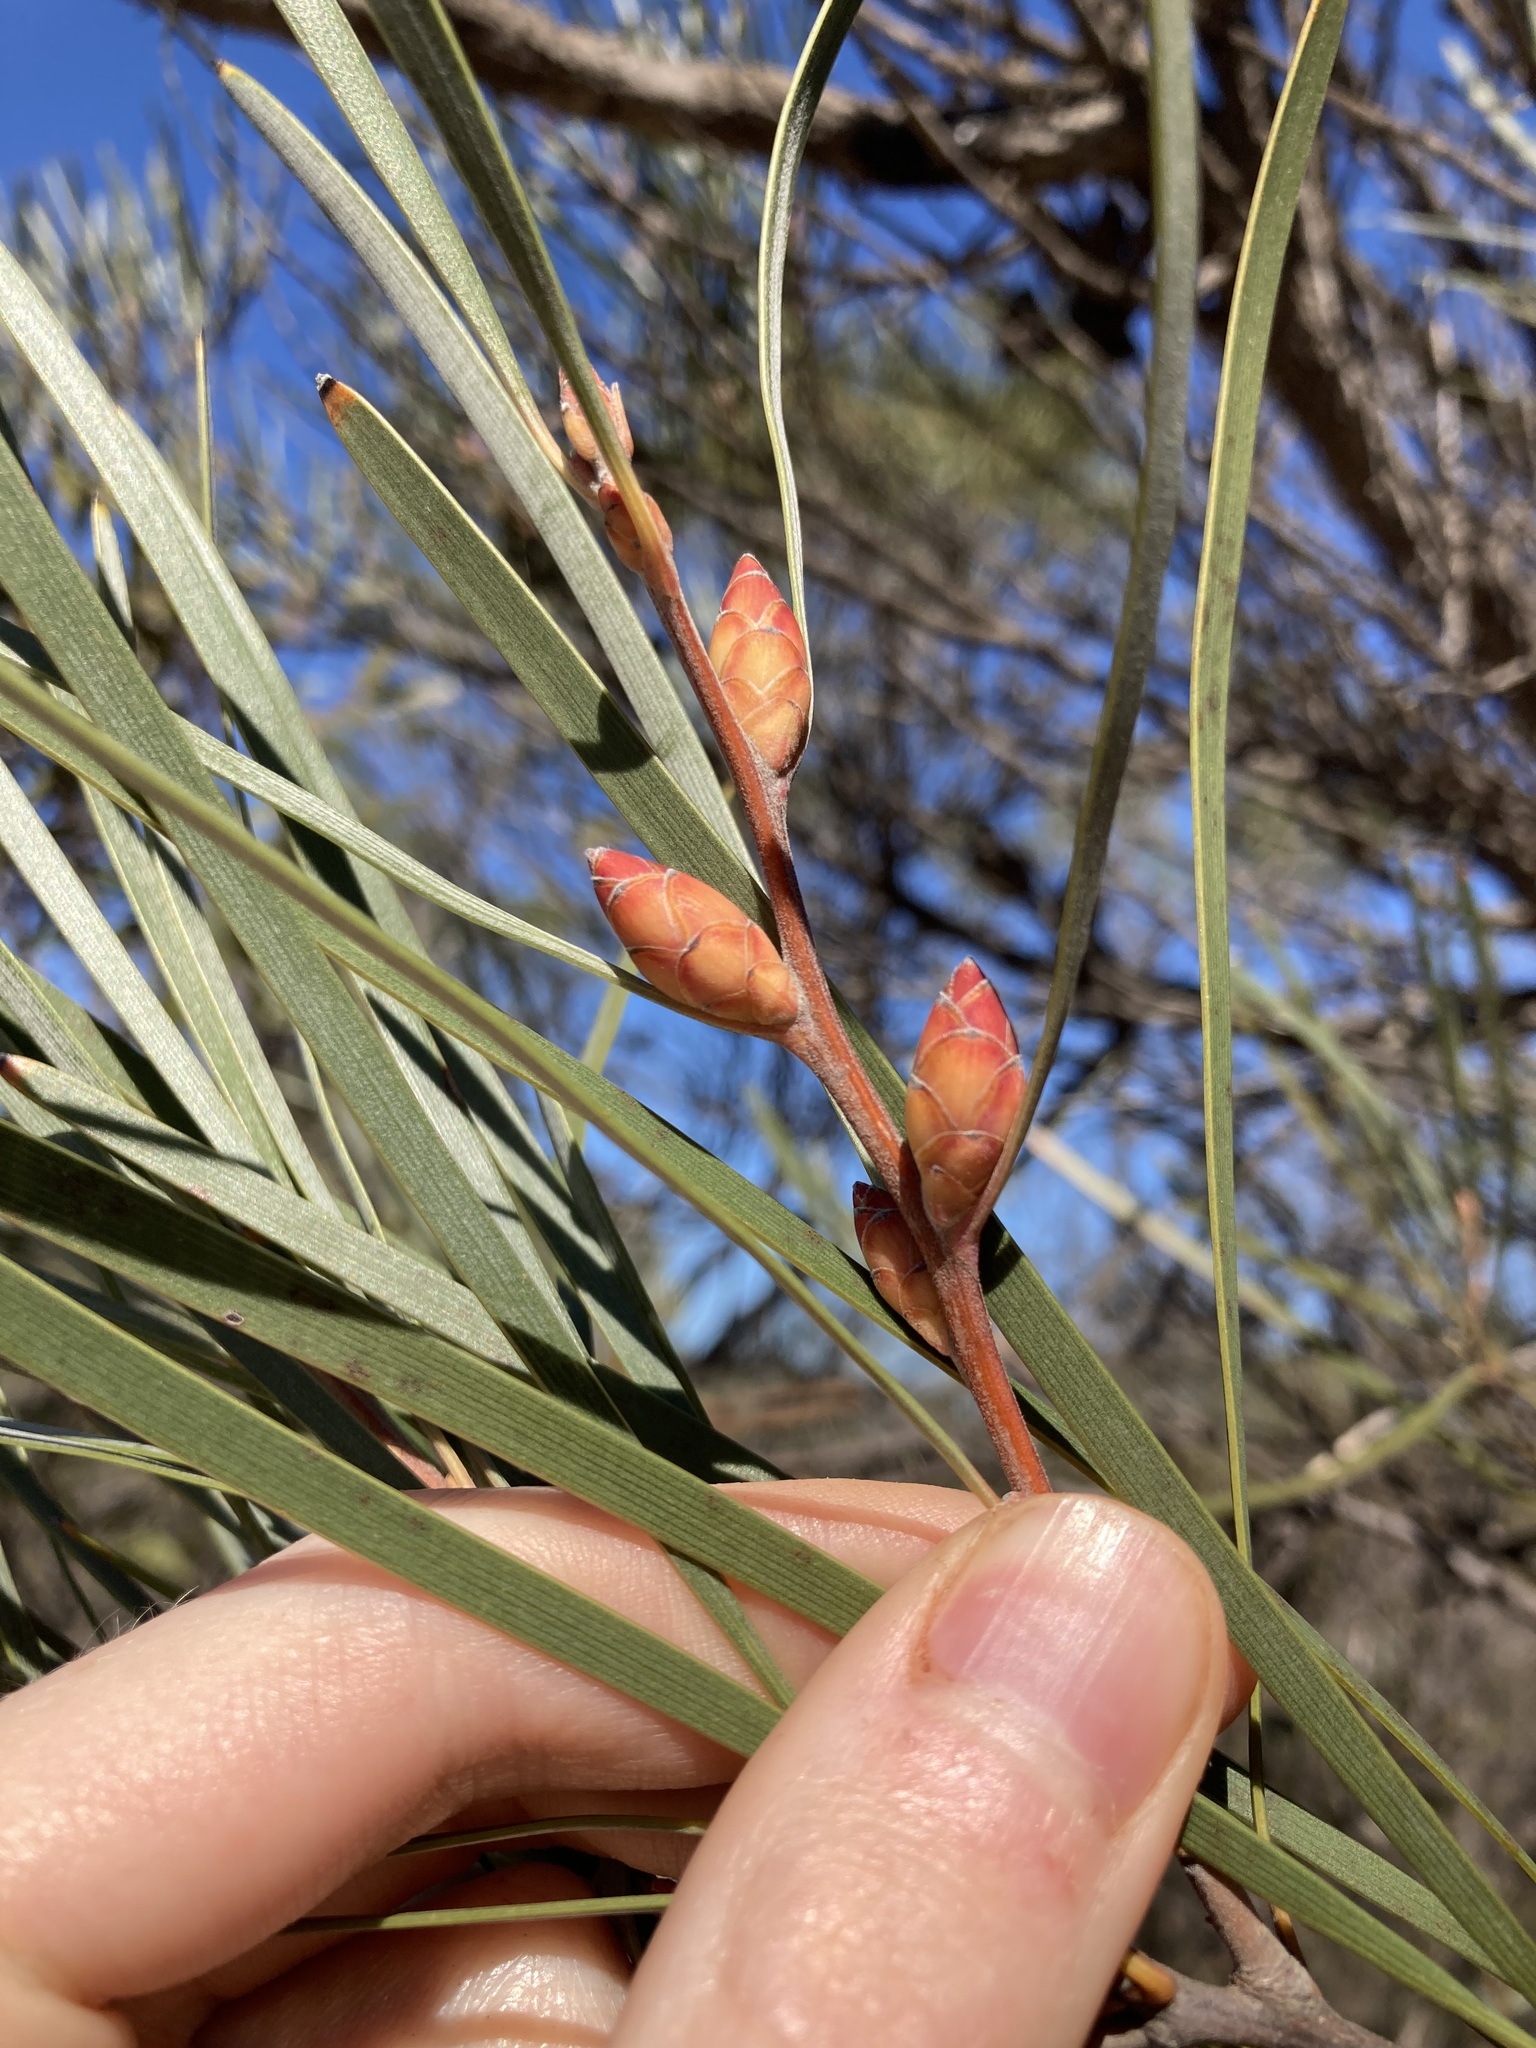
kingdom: Plantae
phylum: Tracheophyta
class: Magnoliopsida
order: Proteales
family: Proteaceae
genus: Hakea
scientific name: Hakea francisiana
